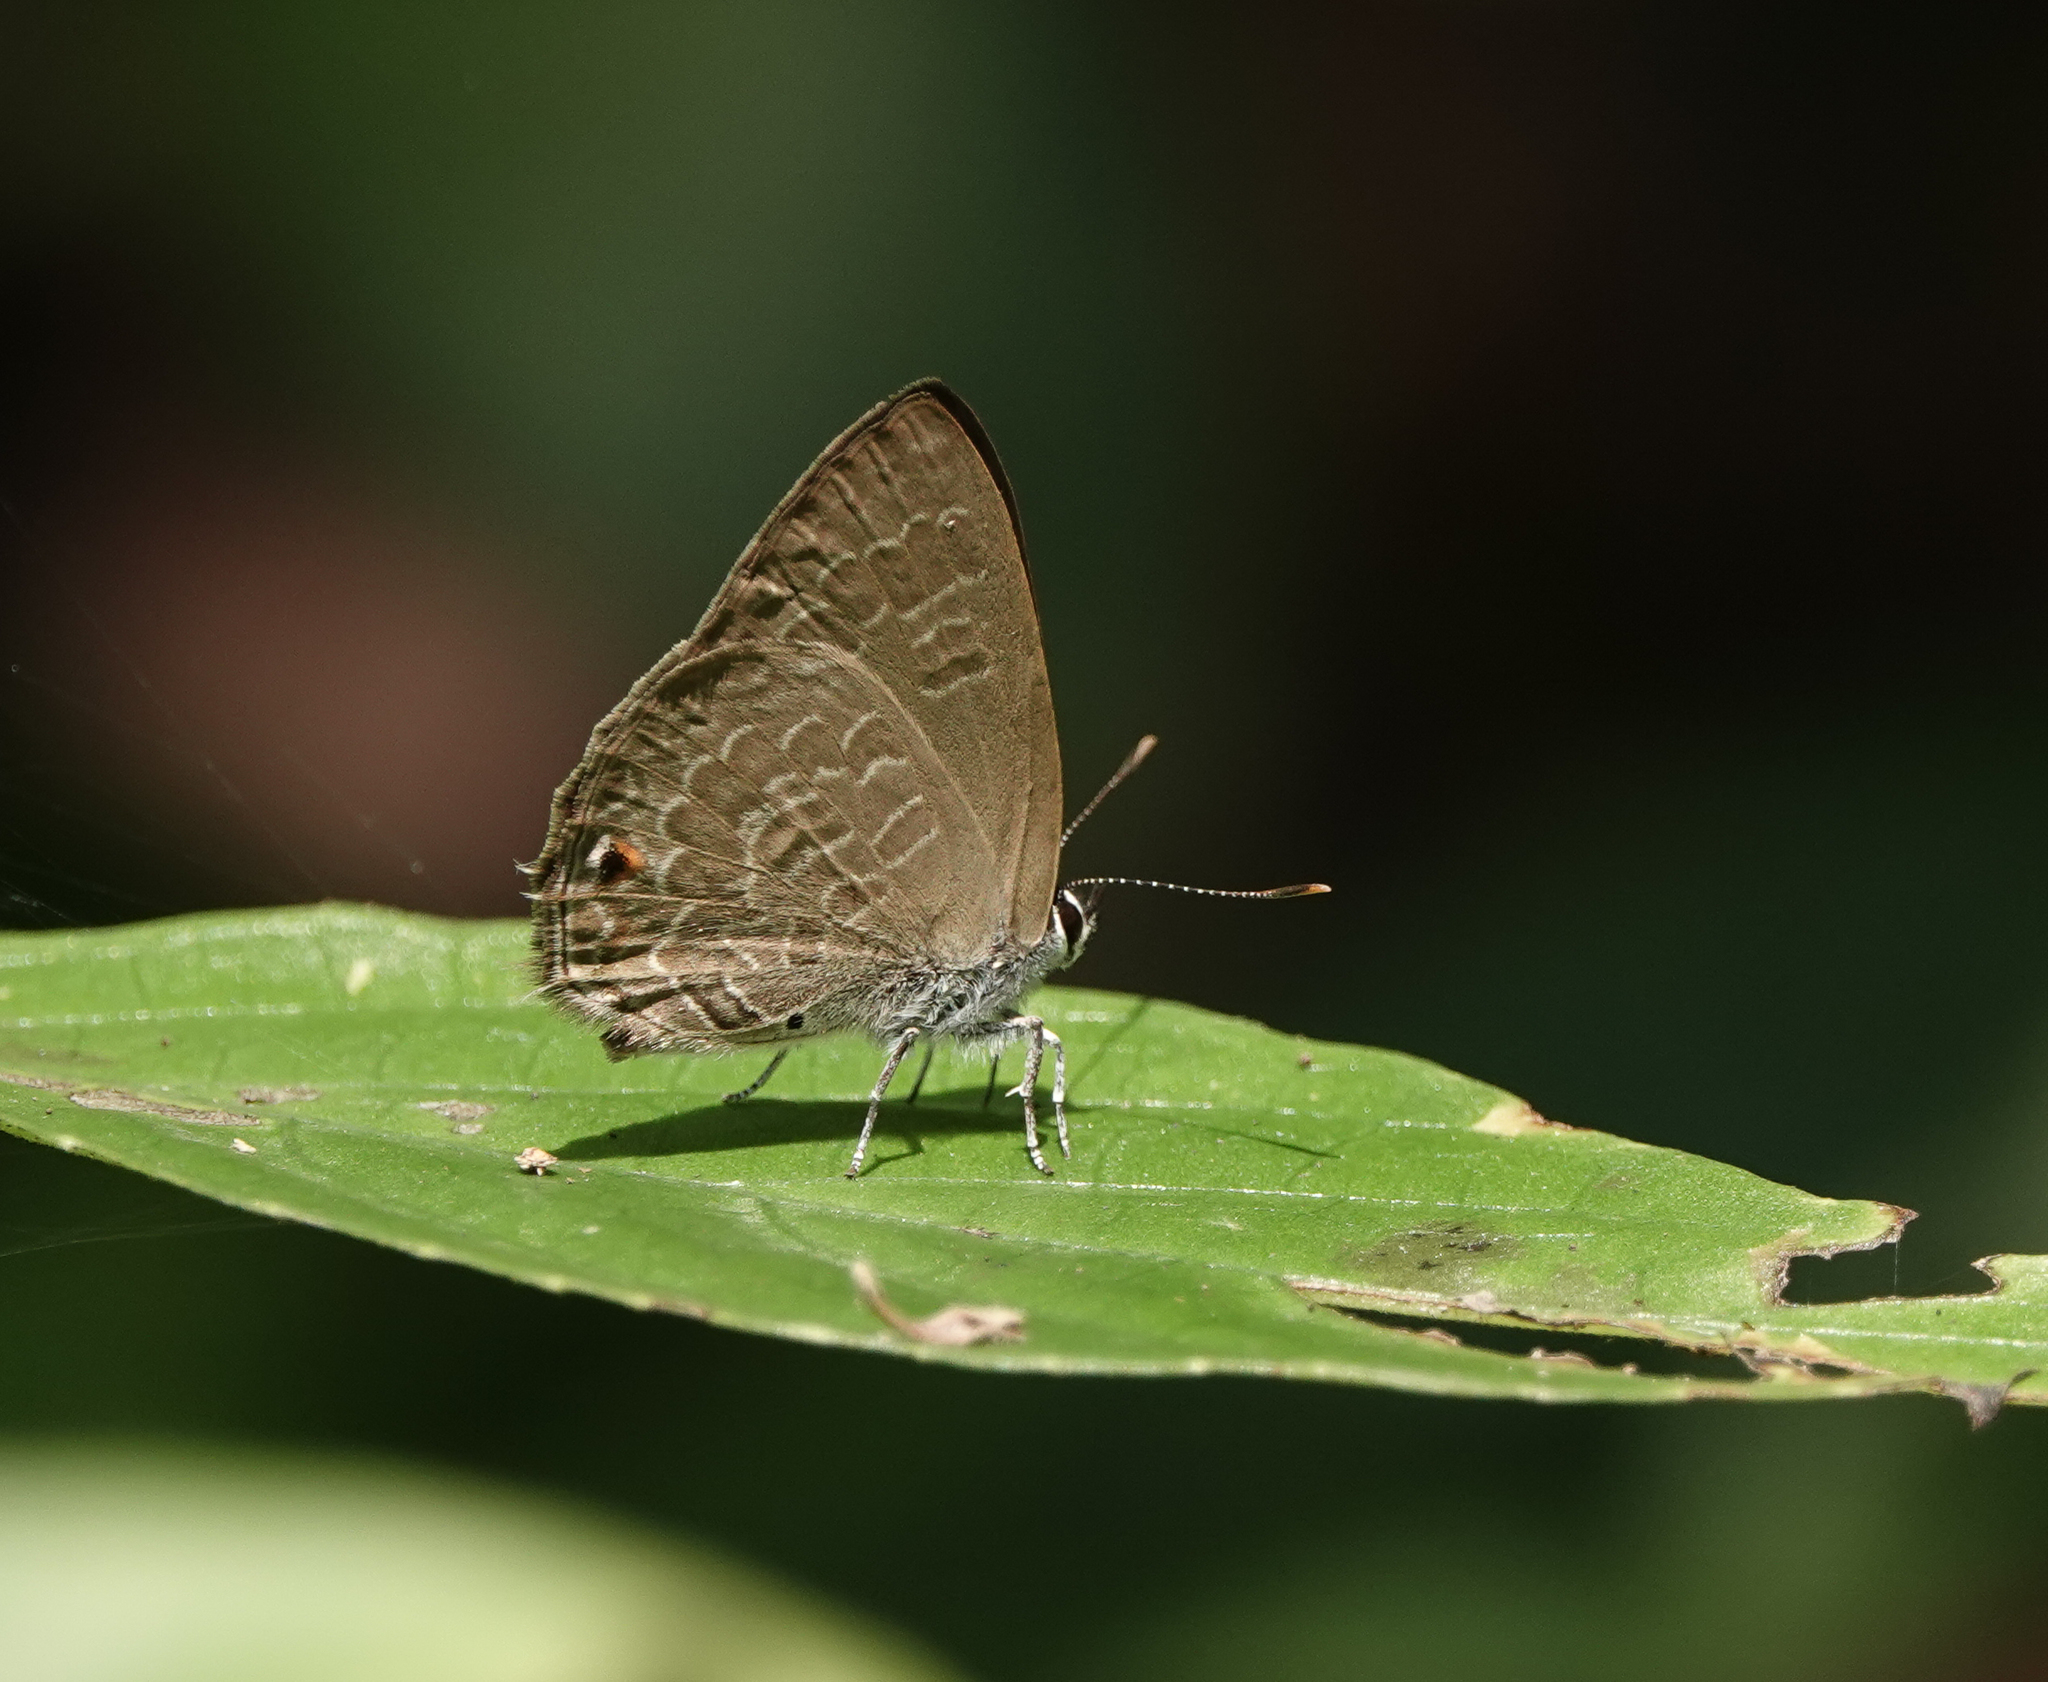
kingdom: Animalia
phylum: Arthropoda
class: Insecta
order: Lepidoptera
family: Lycaenidae
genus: Anthene
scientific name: Anthene emolus
